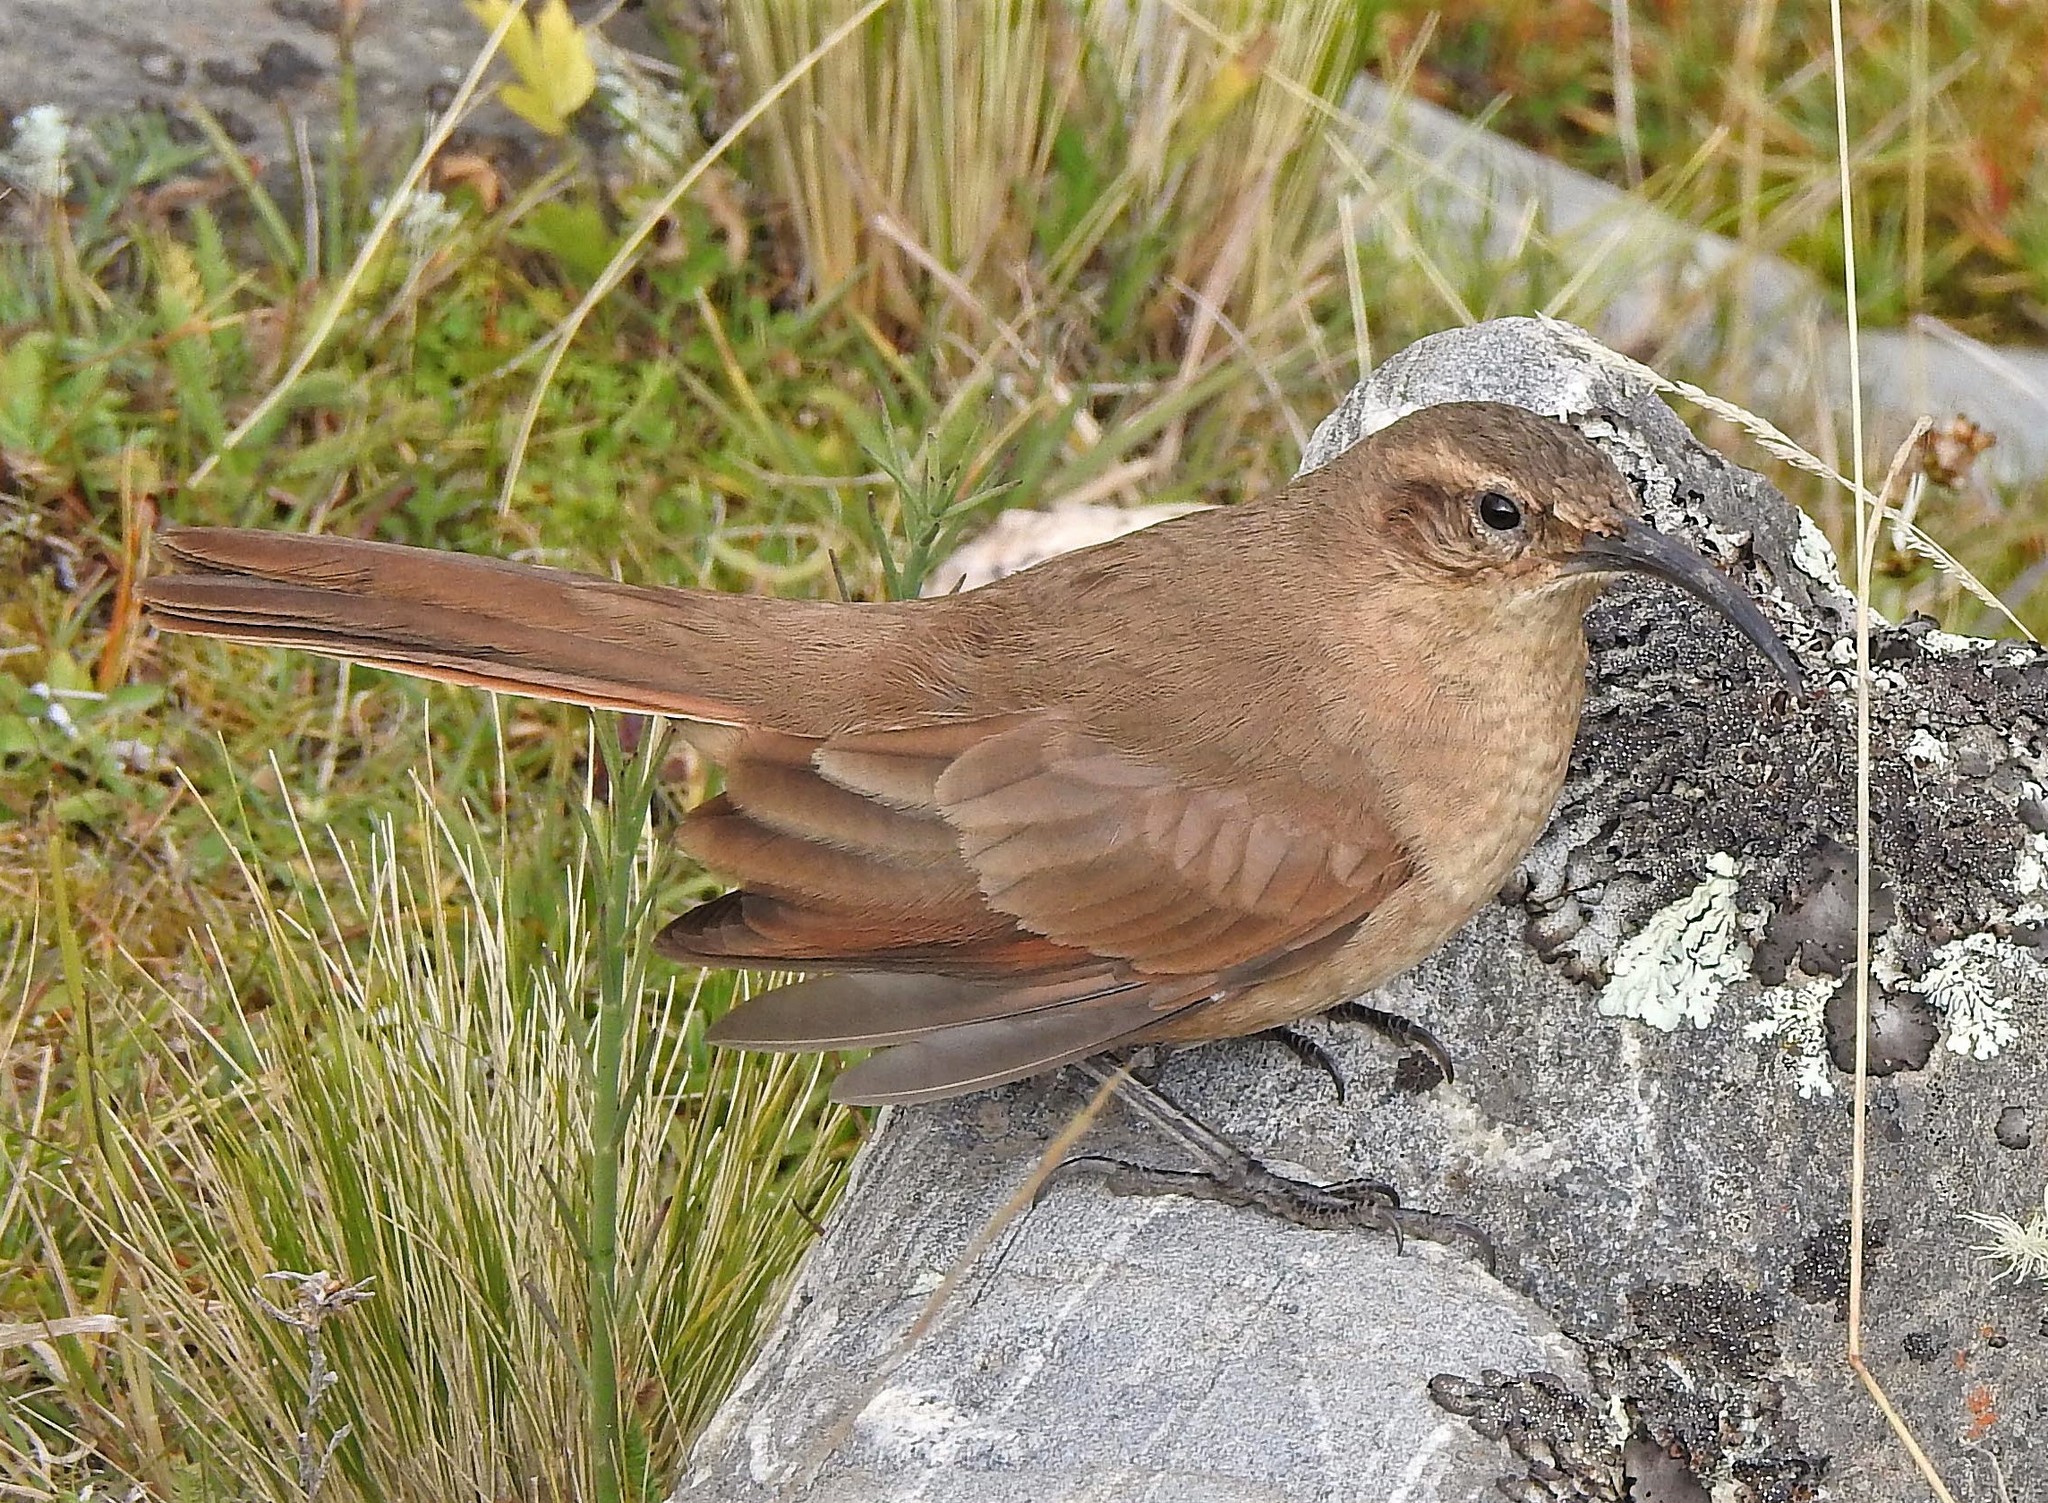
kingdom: Animalia
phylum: Chordata
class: Aves
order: Passeriformes
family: Furnariidae
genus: Upucerthia
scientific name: Upucerthia validirostris
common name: Buff-breasted earthcreeper
